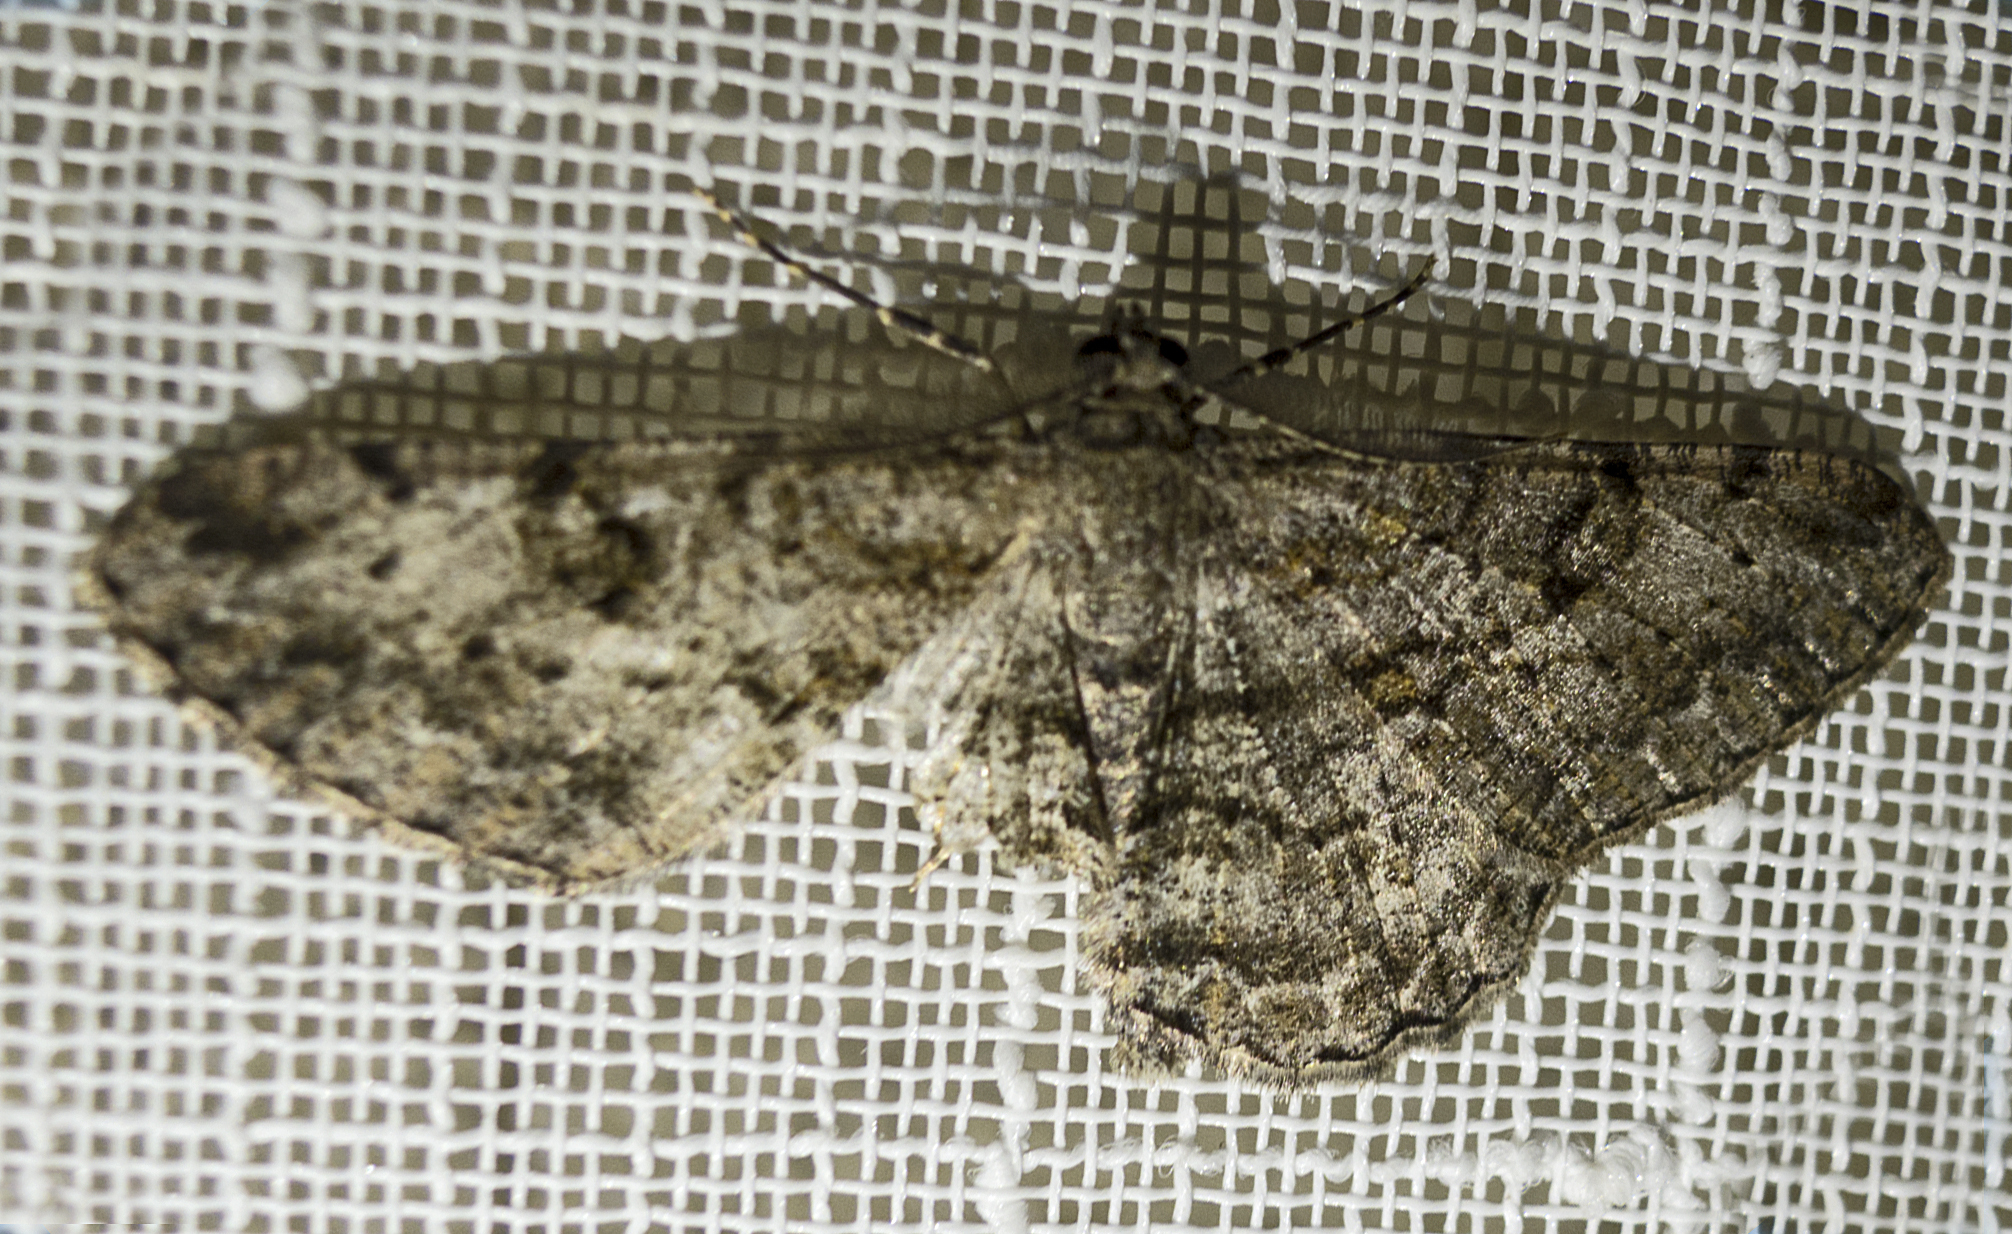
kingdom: Animalia
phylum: Arthropoda
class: Insecta
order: Lepidoptera
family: Geometridae
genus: Peribatodes
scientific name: Peribatodes rhomboidaria
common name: Willow beauty
